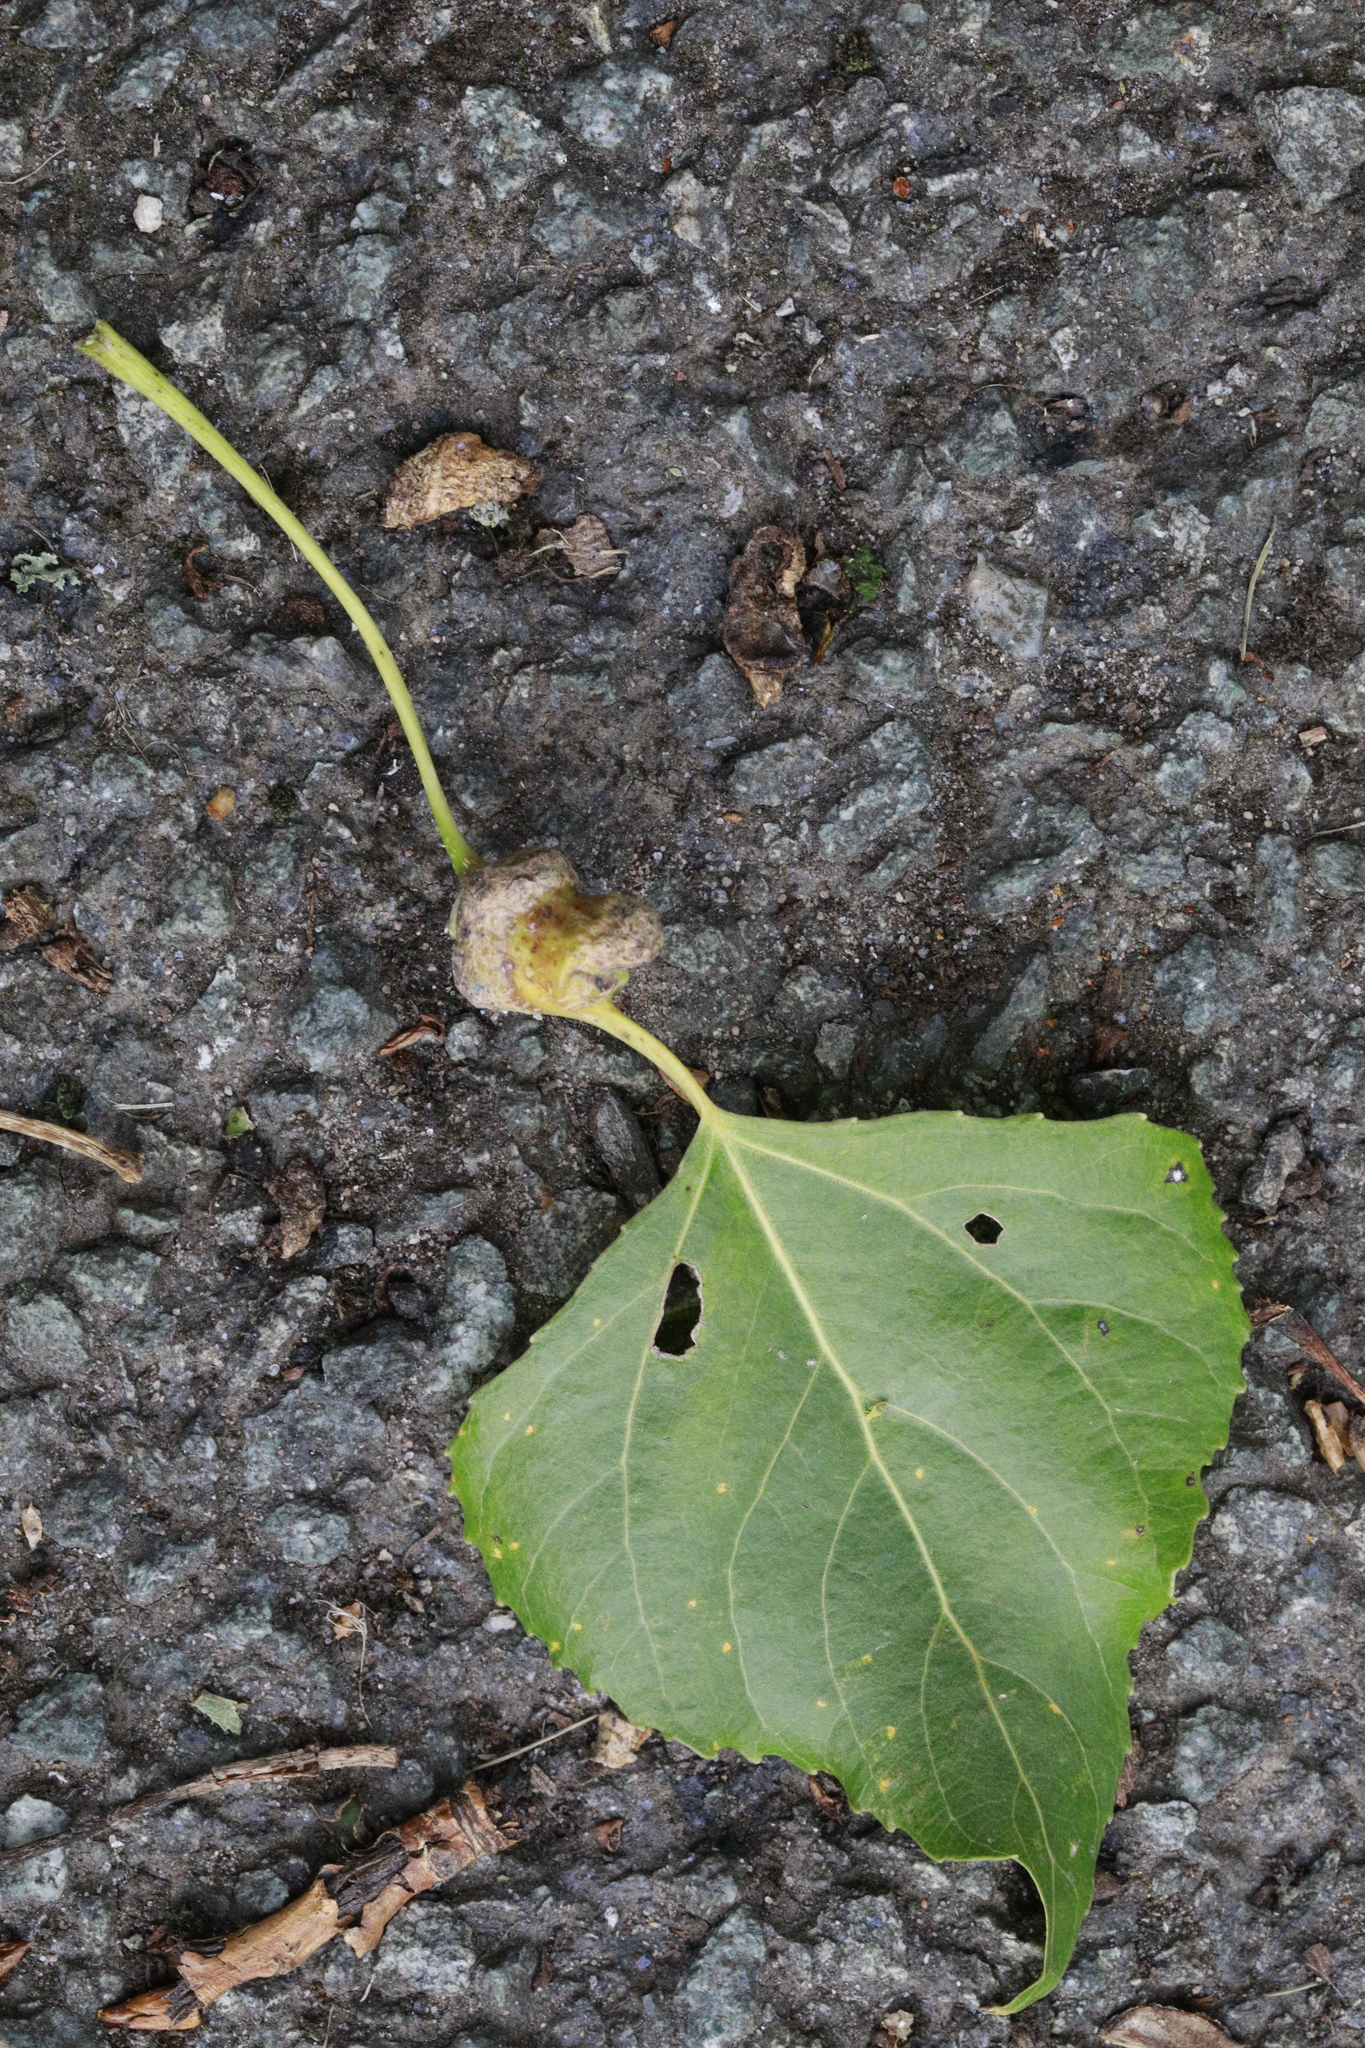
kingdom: Animalia
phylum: Arthropoda
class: Insecta
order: Hemiptera
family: Aphididae
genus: Pemphigus
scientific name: Pemphigus spyrothecae
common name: Aphid
